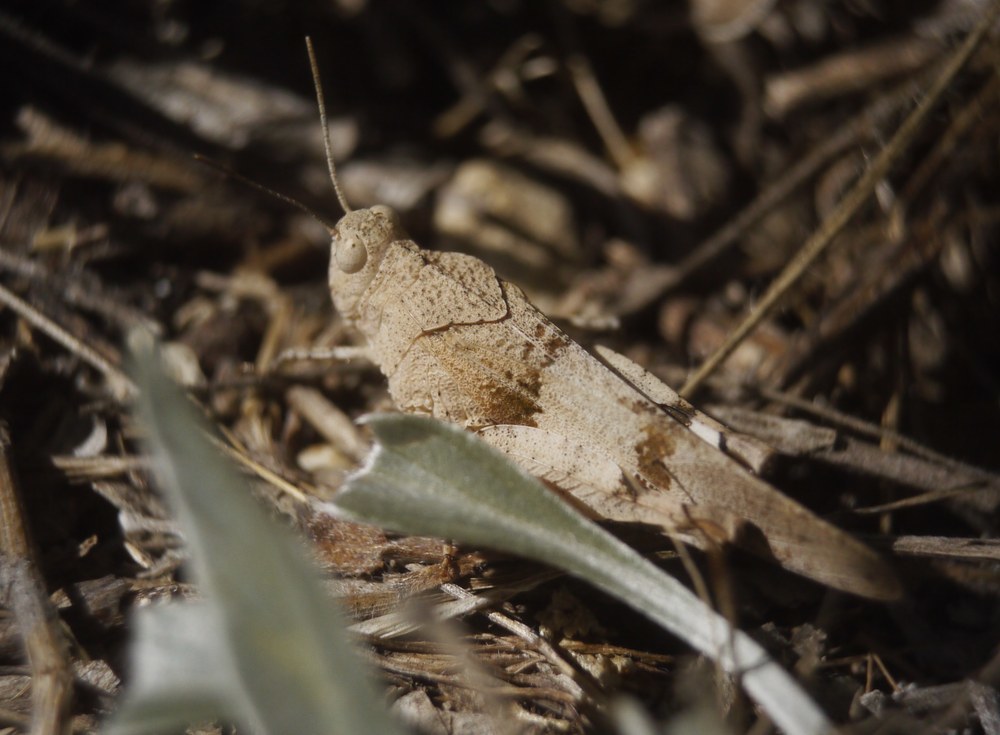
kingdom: Animalia
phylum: Arthropoda
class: Insecta
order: Orthoptera
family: Acrididae
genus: Oedipoda
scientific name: Oedipoda caerulescens
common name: Blue-winged grasshopper
